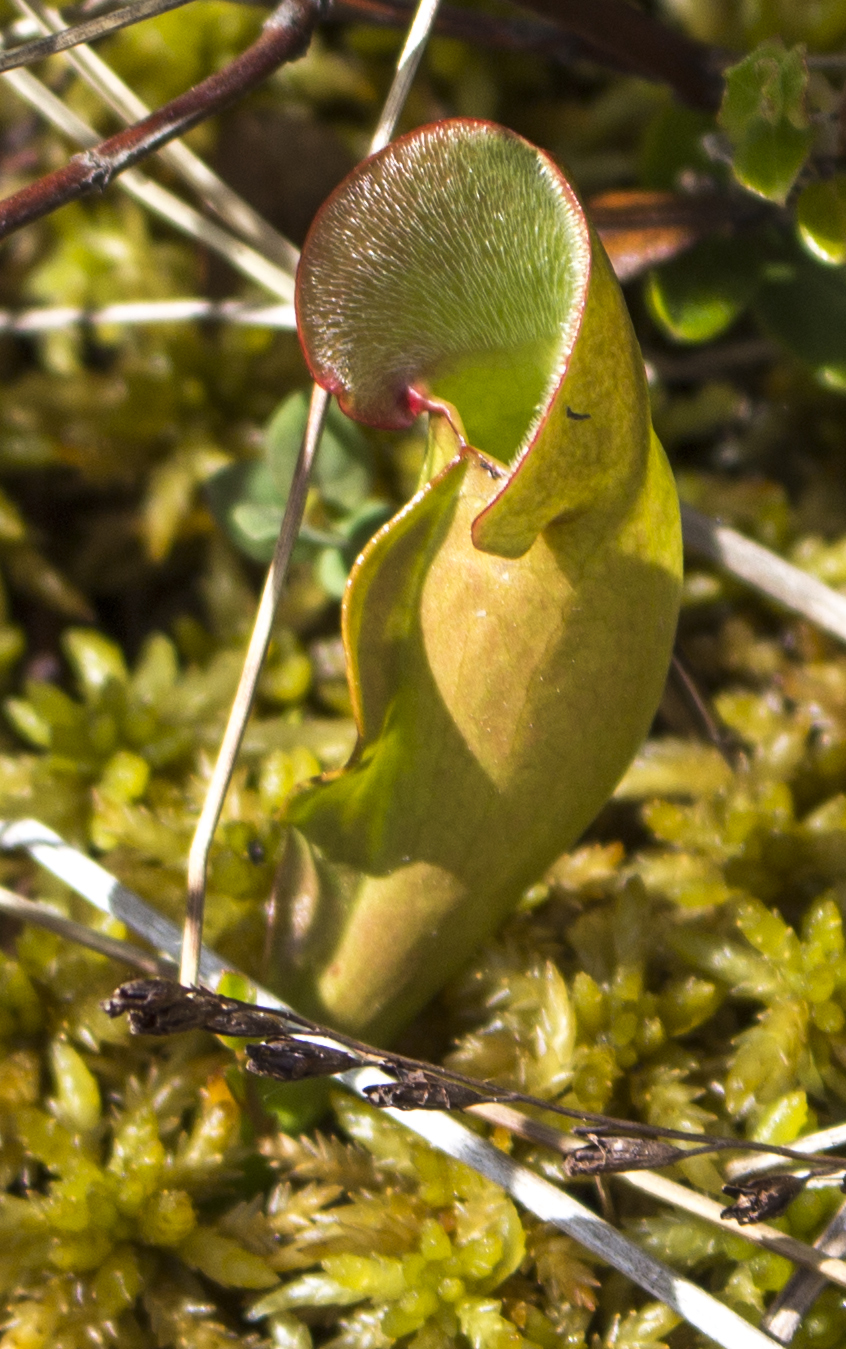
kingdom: Plantae
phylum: Tracheophyta
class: Magnoliopsida
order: Ericales
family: Sarraceniaceae
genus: Sarracenia
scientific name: Sarracenia purpurea
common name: Pitcherplant
